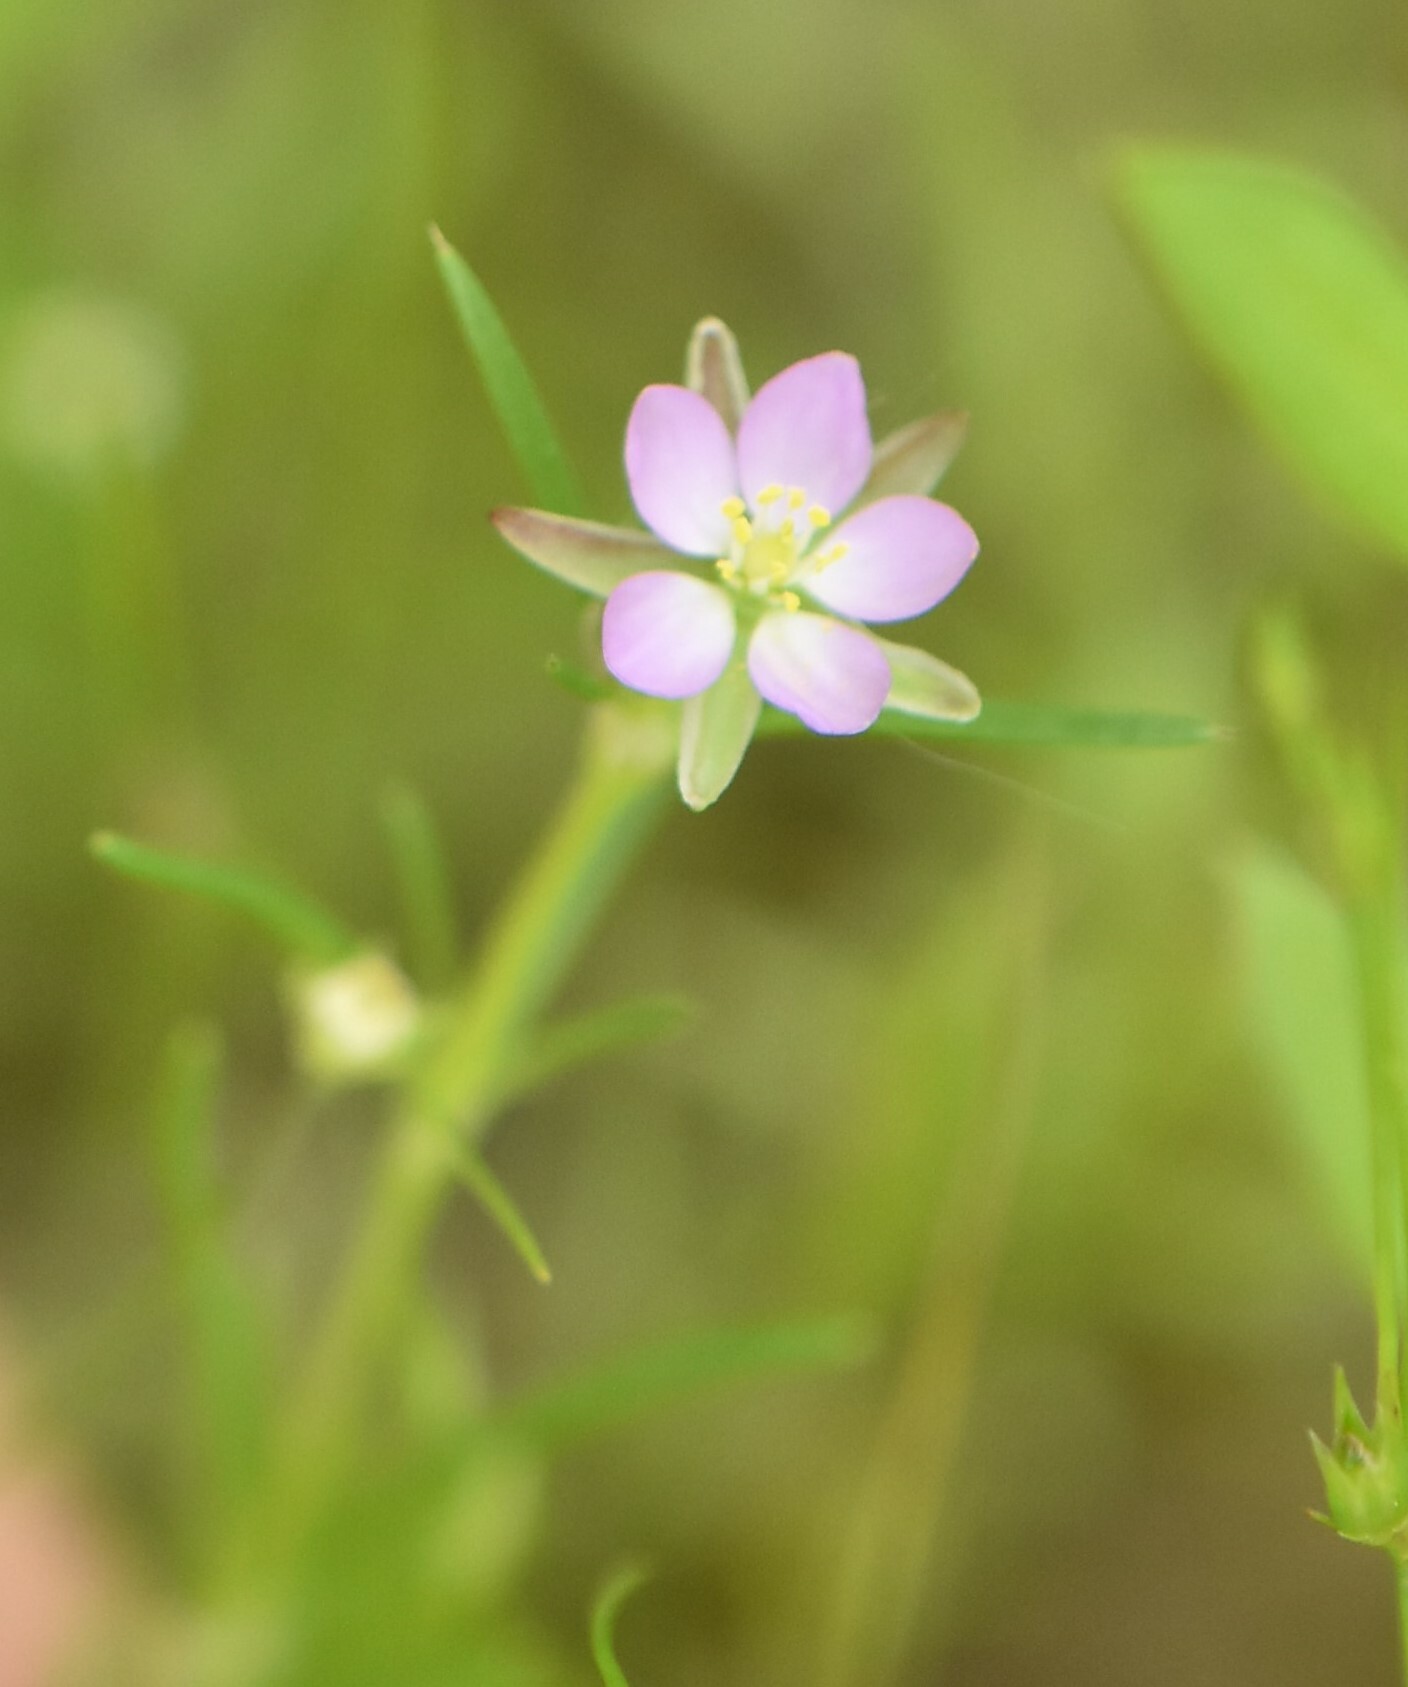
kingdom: Plantae
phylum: Tracheophyta
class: Magnoliopsida
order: Caryophyllales
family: Caryophyllaceae
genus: Spergularia
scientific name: Spergularia rubra
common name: Red sand-spurrey
